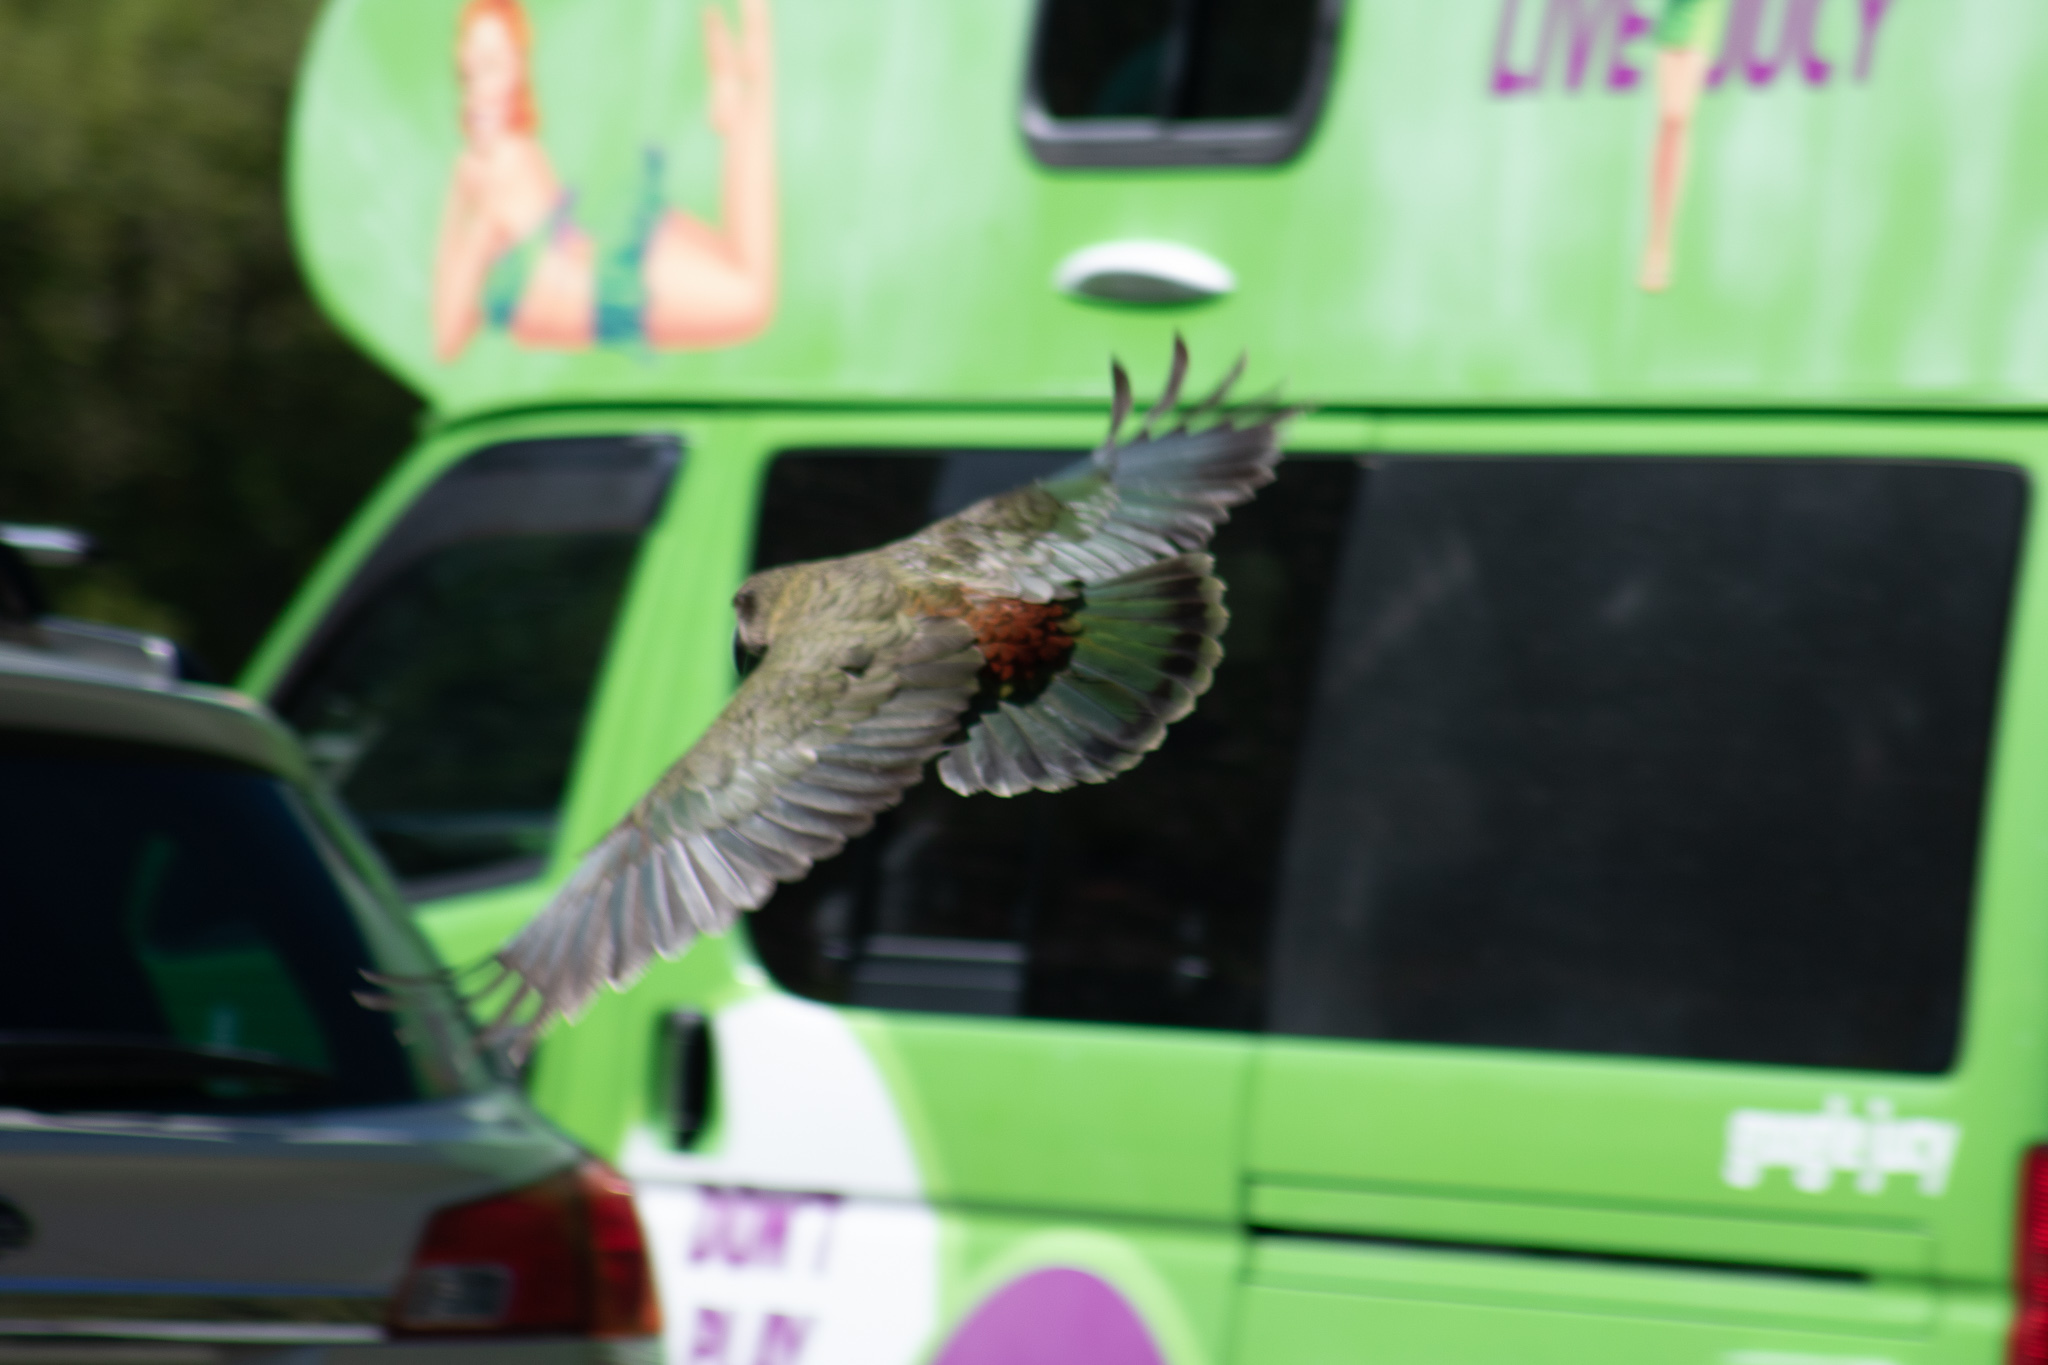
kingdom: Animalia
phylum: Chordata
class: Aves
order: Psittaciformes
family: Psittacidae
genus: Nestor
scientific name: Nestor notabilis
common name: Kea
